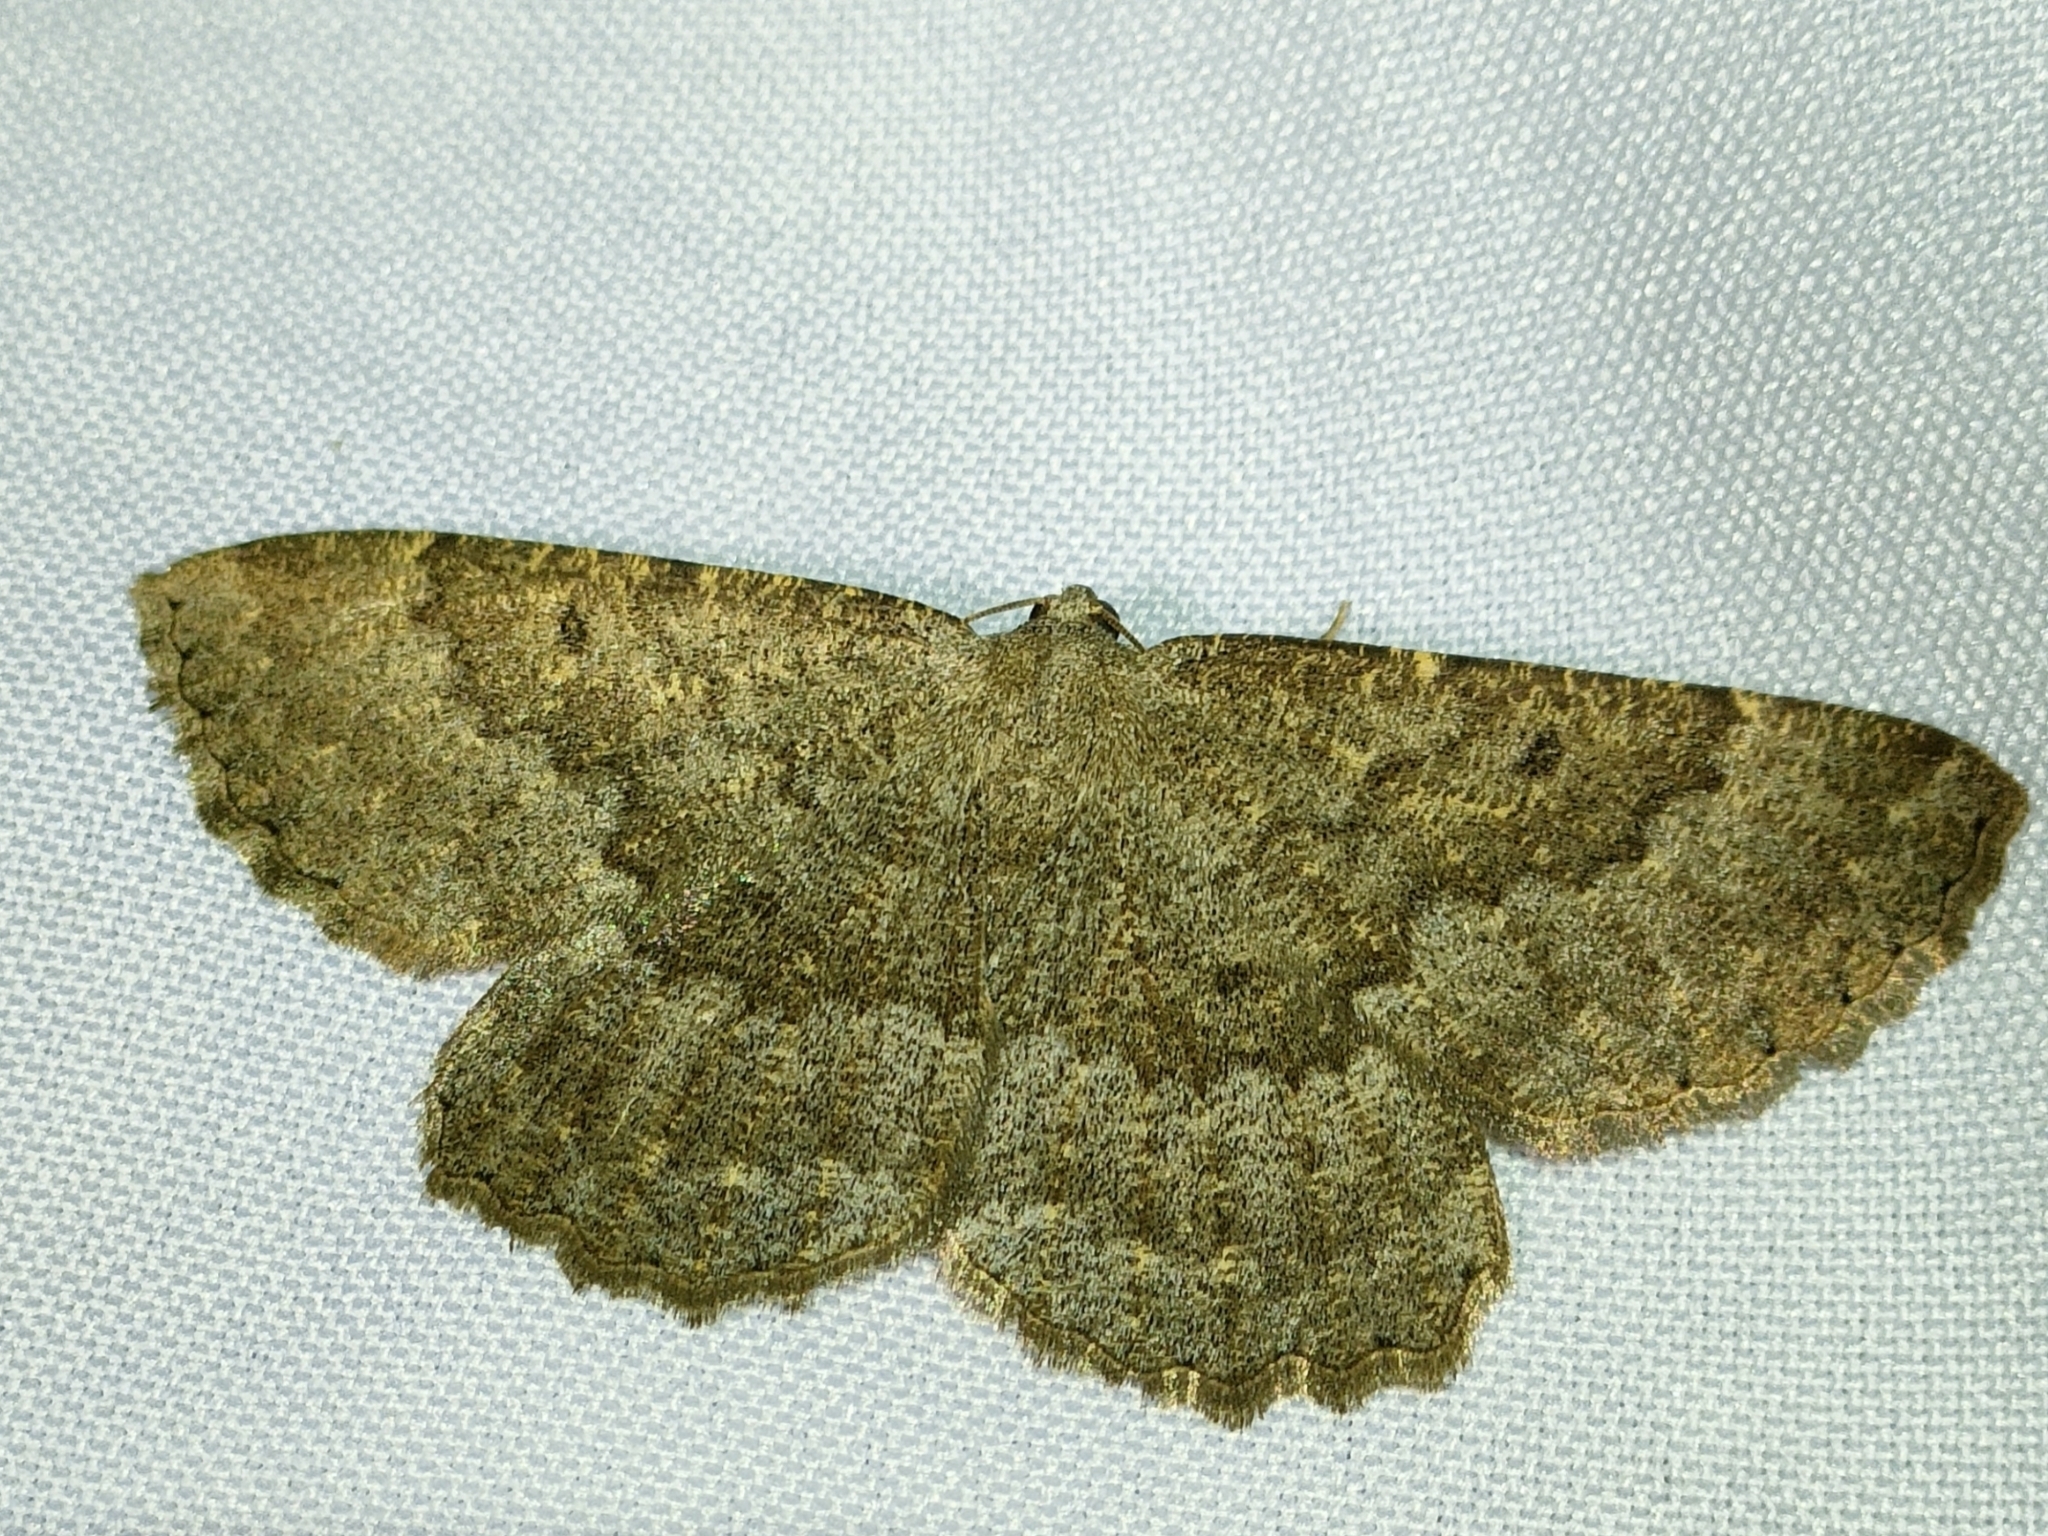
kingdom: Animalia
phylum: Arthropoda
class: Insecta
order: Lepidoptera
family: Geometridae
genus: Gnophos
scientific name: Gnophos furvata
